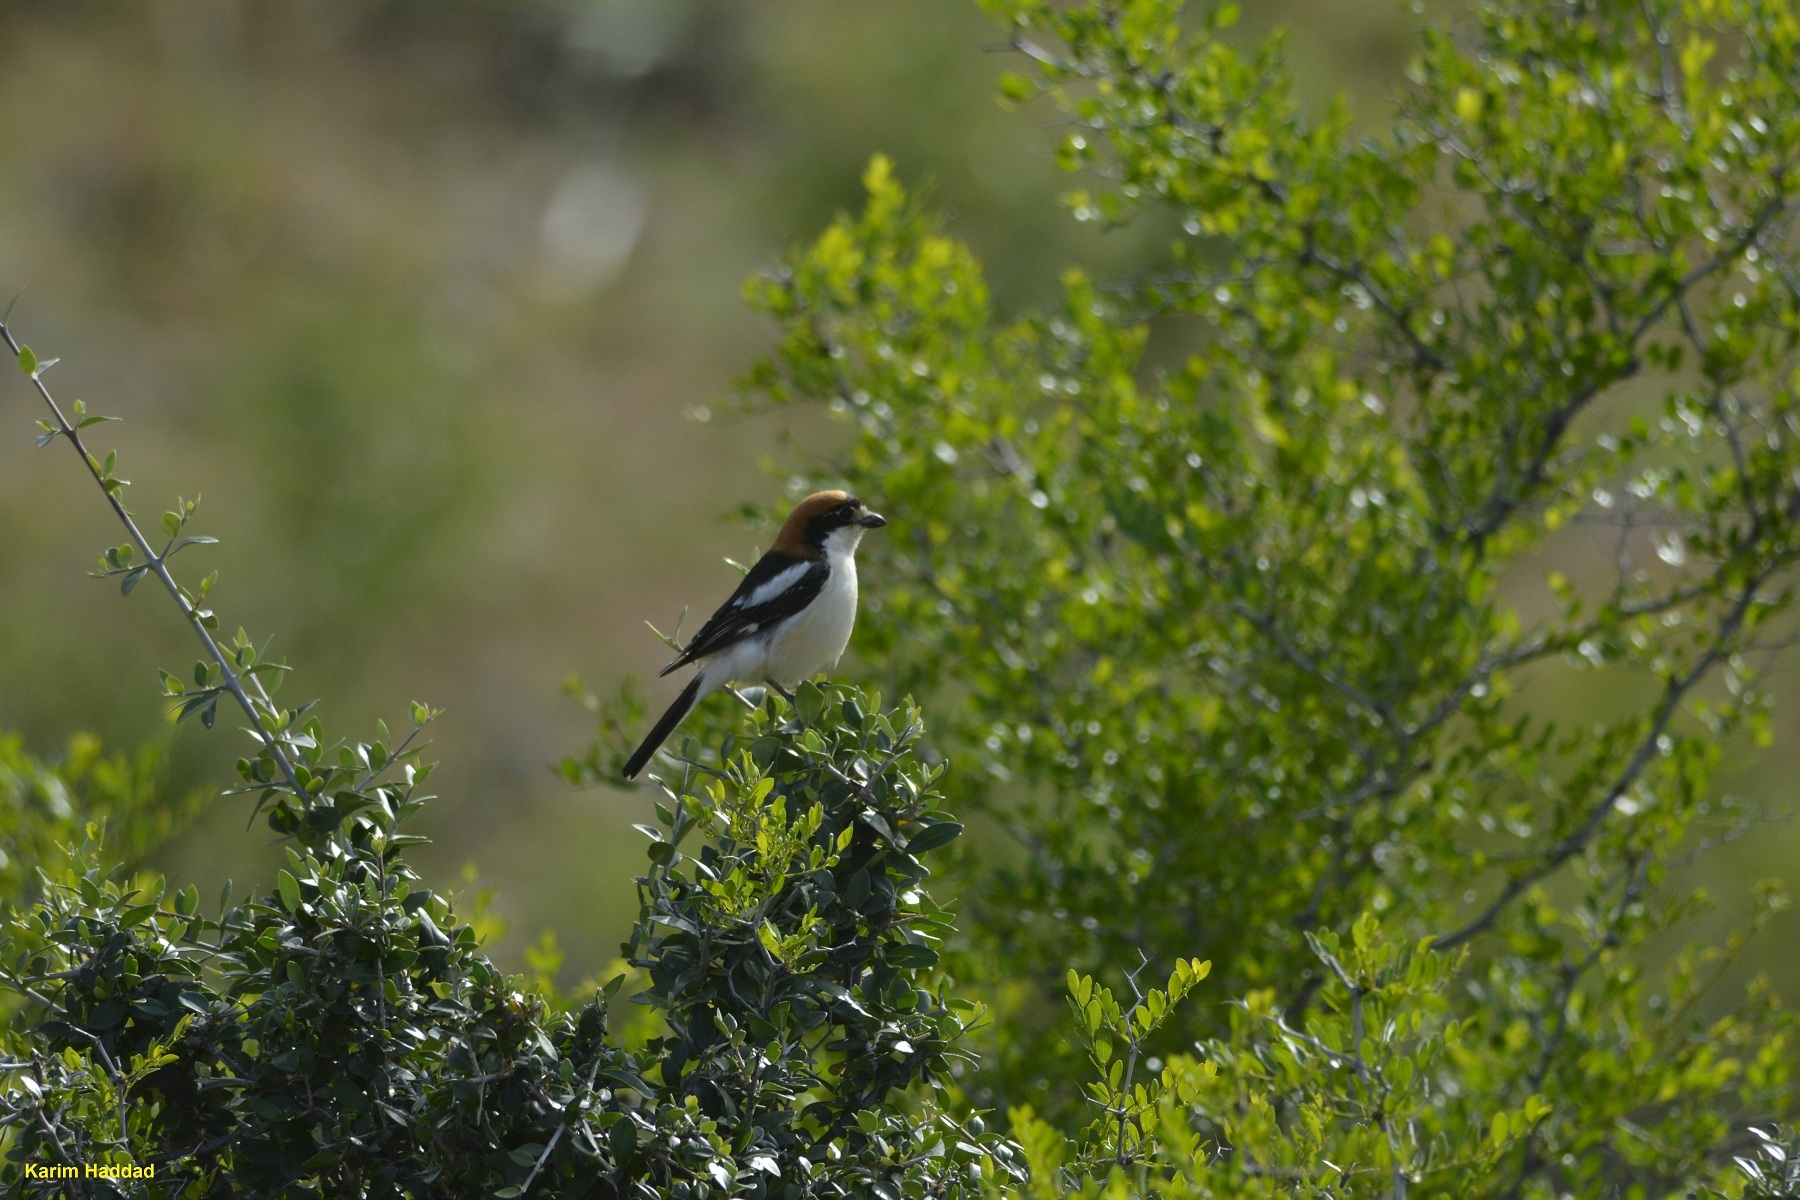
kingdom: Animalia
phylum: Chordata
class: Aves
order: Passeriformes
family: Laniidae
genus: Lanius
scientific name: Lanius senator
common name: Woodchat shrike
